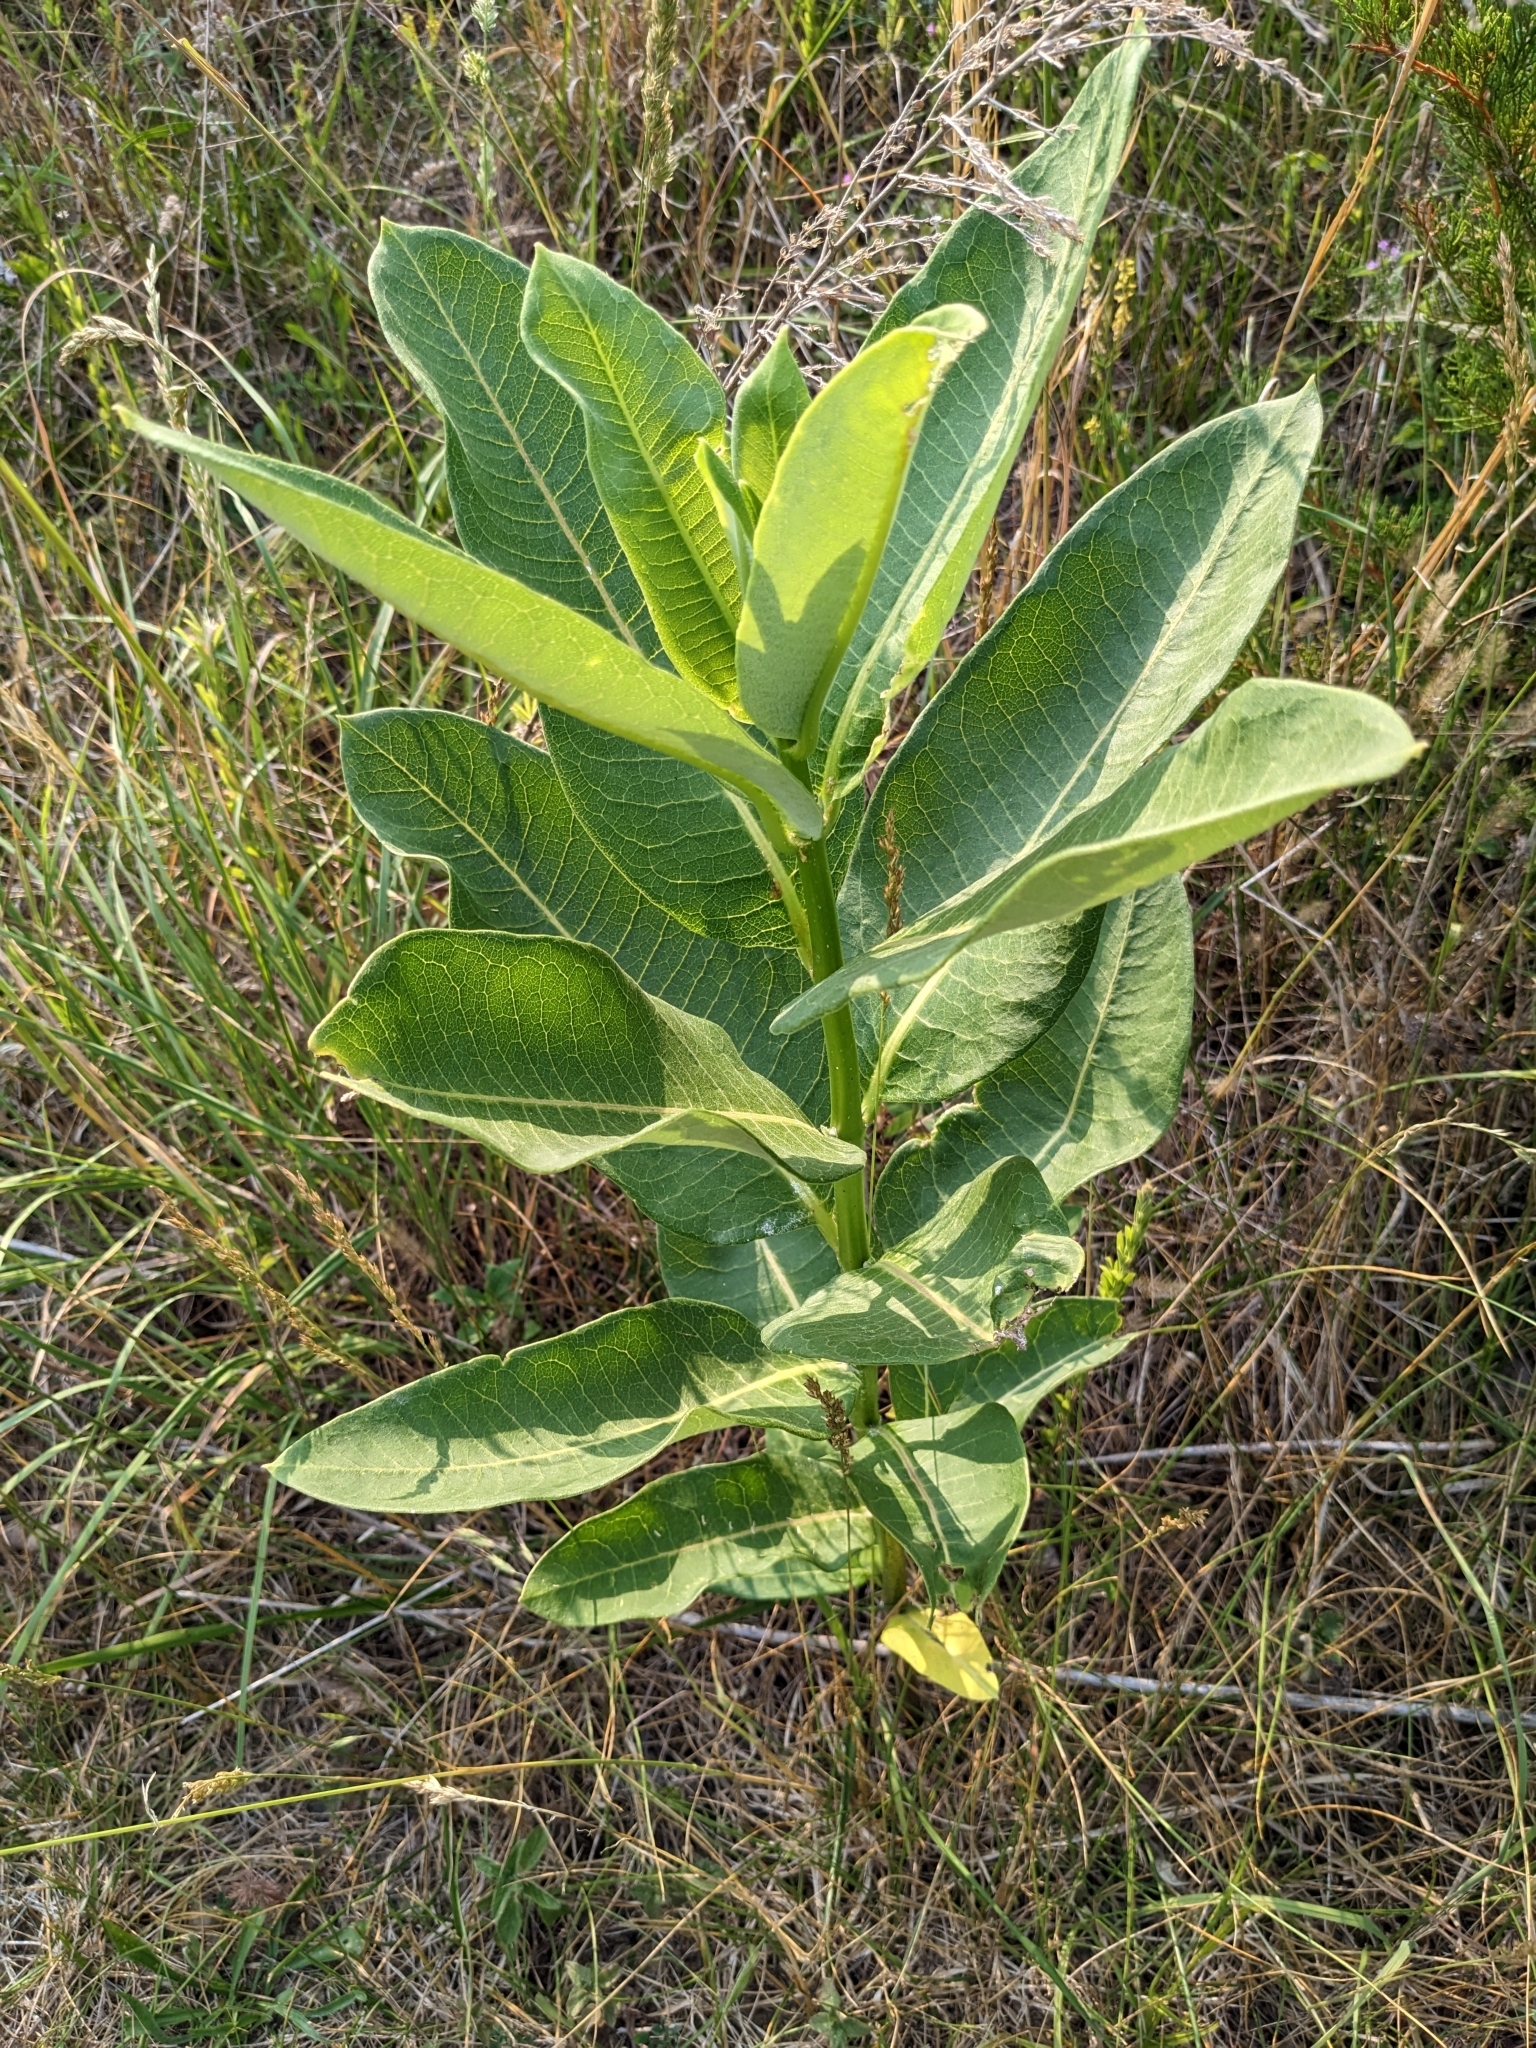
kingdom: Plantae
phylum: Tracheophyta
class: Magnoliopsida
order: Gentianales
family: Apocynaceae
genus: Asclepias
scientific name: Asclepias syriaca
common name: Common milkweed
